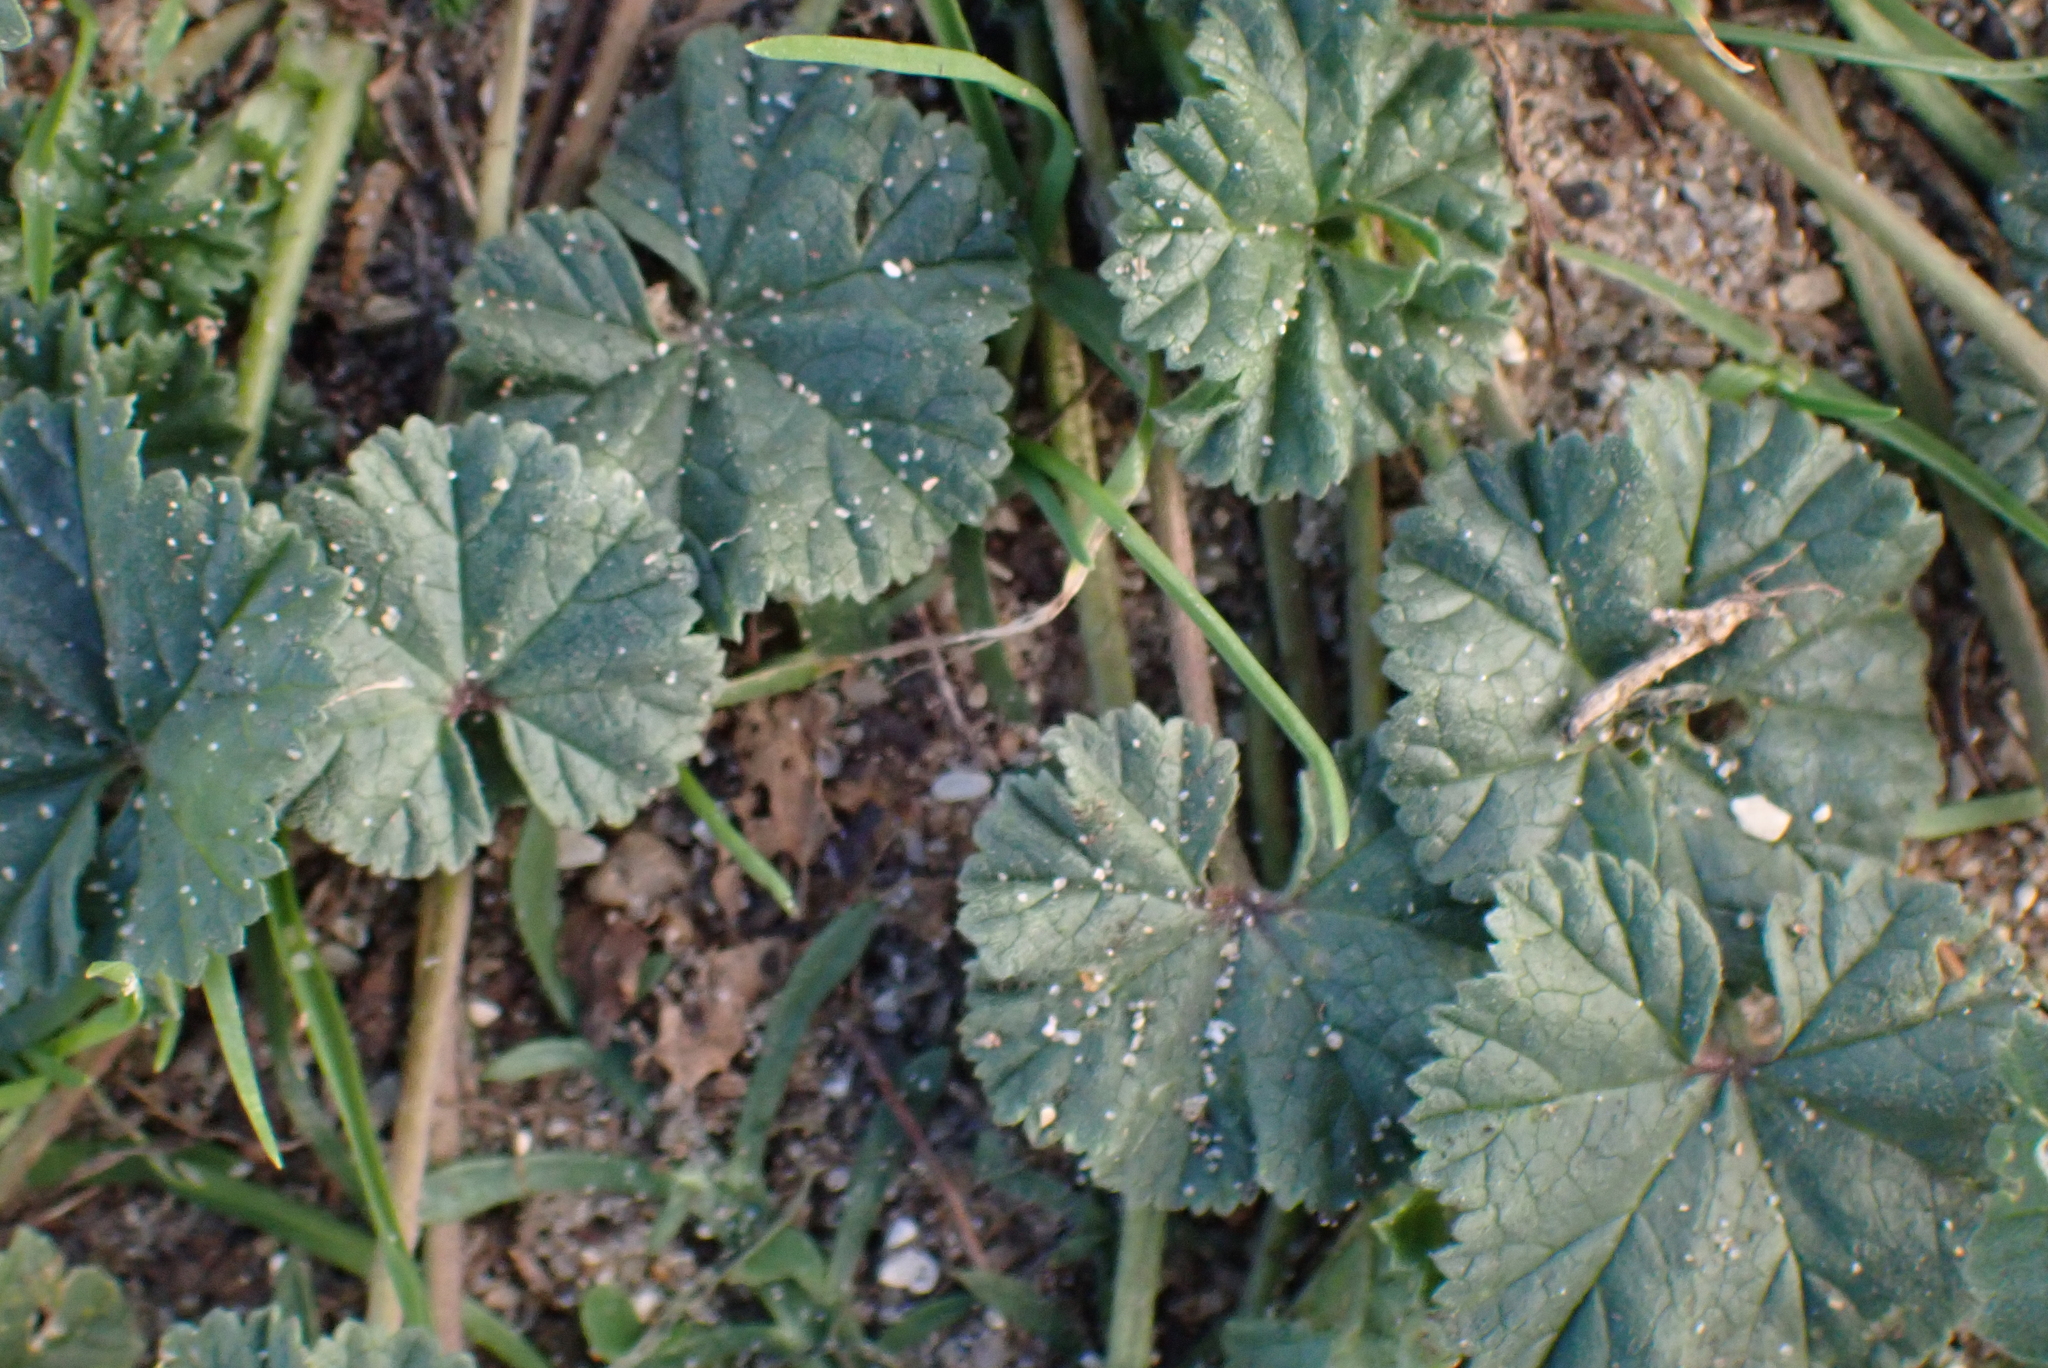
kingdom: Plantae
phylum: Tracheophyta
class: Magnoliopsida
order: Malvales
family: Malvaceae
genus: Malva
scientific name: Malva sylvestris
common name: Common mallow
